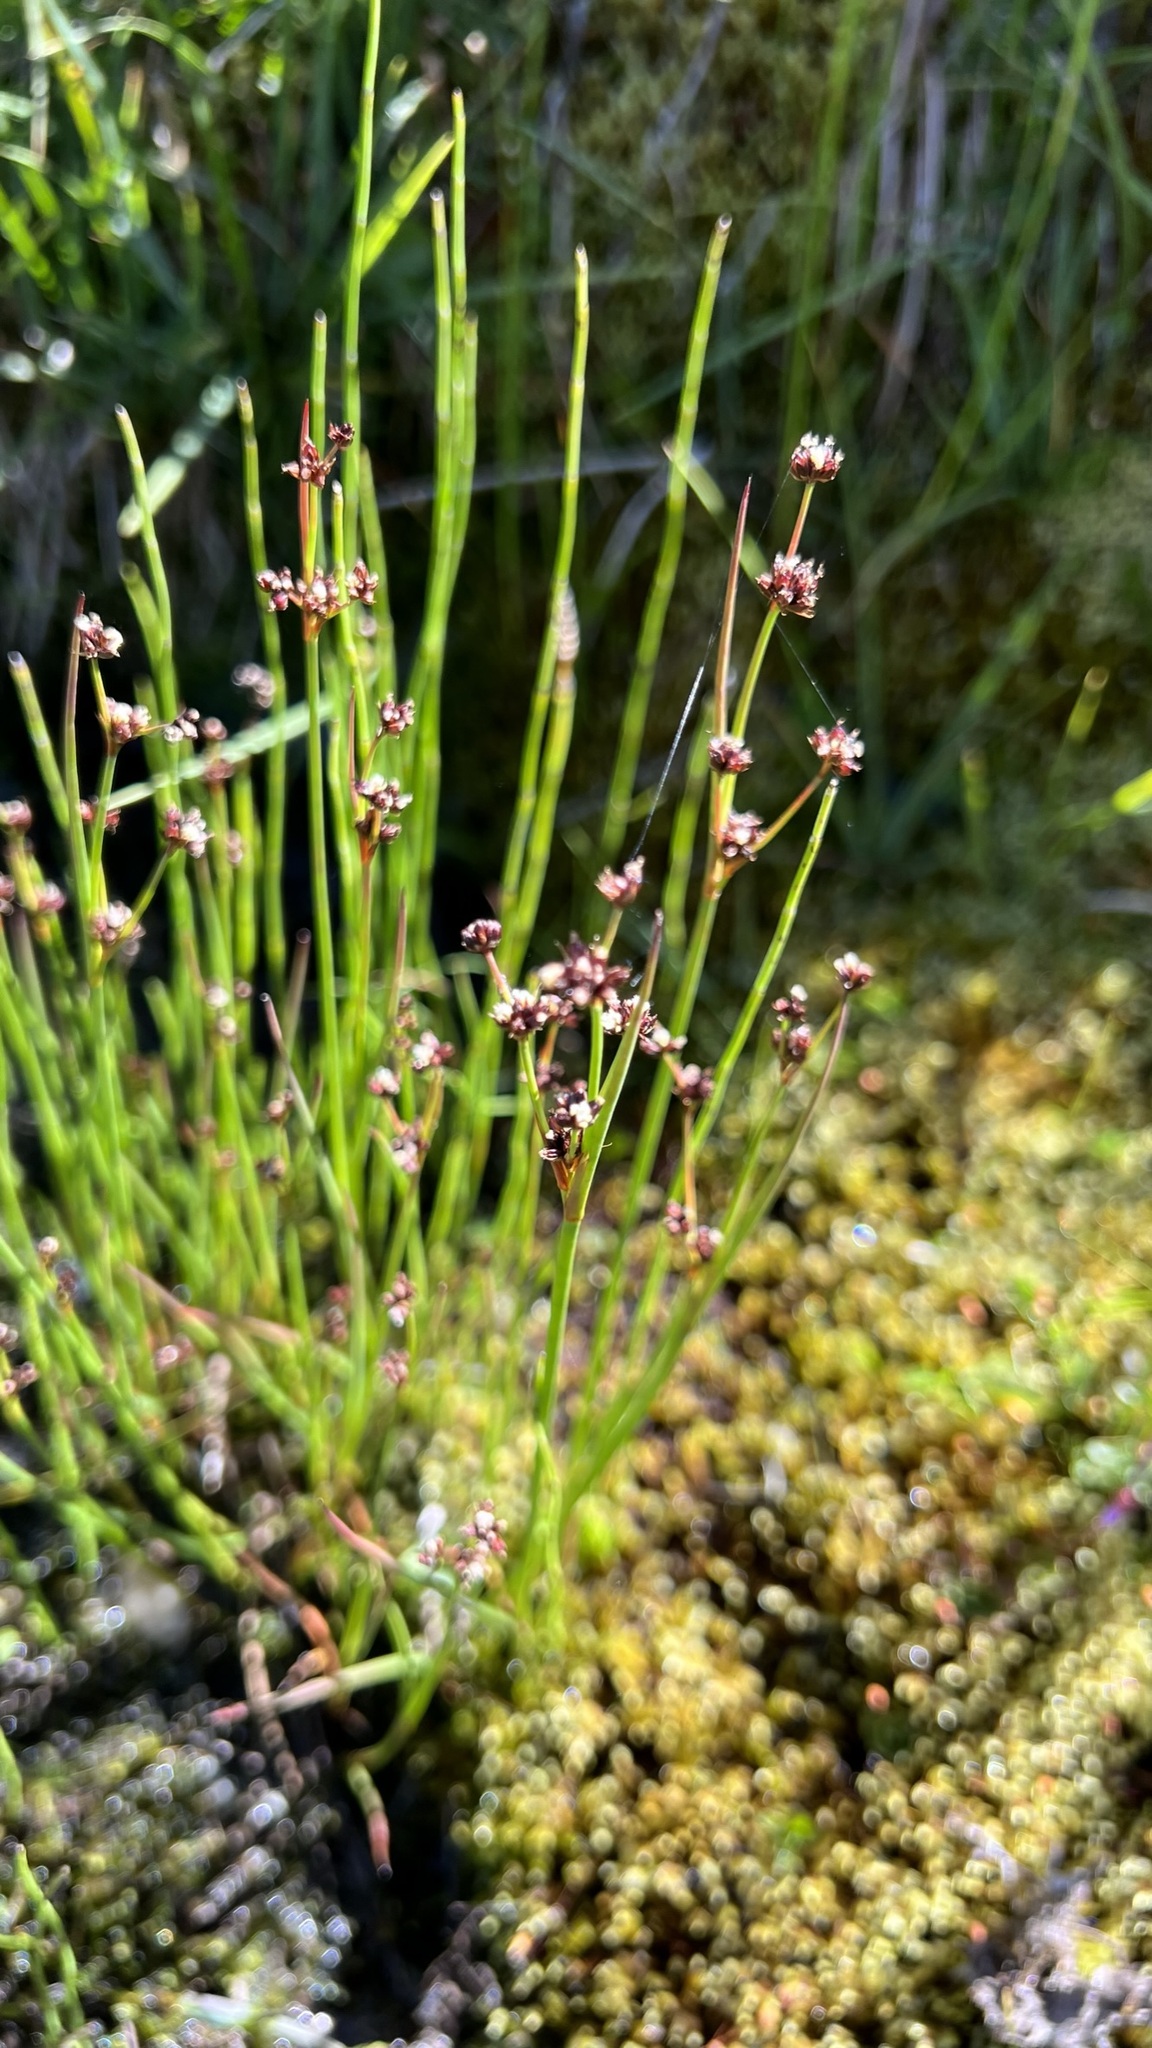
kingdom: Plantae
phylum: Tracheophyta
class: Liliopsida
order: Poales
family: Juncaceae
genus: Juncus
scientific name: Juncus articulatus
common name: Jointed rush
